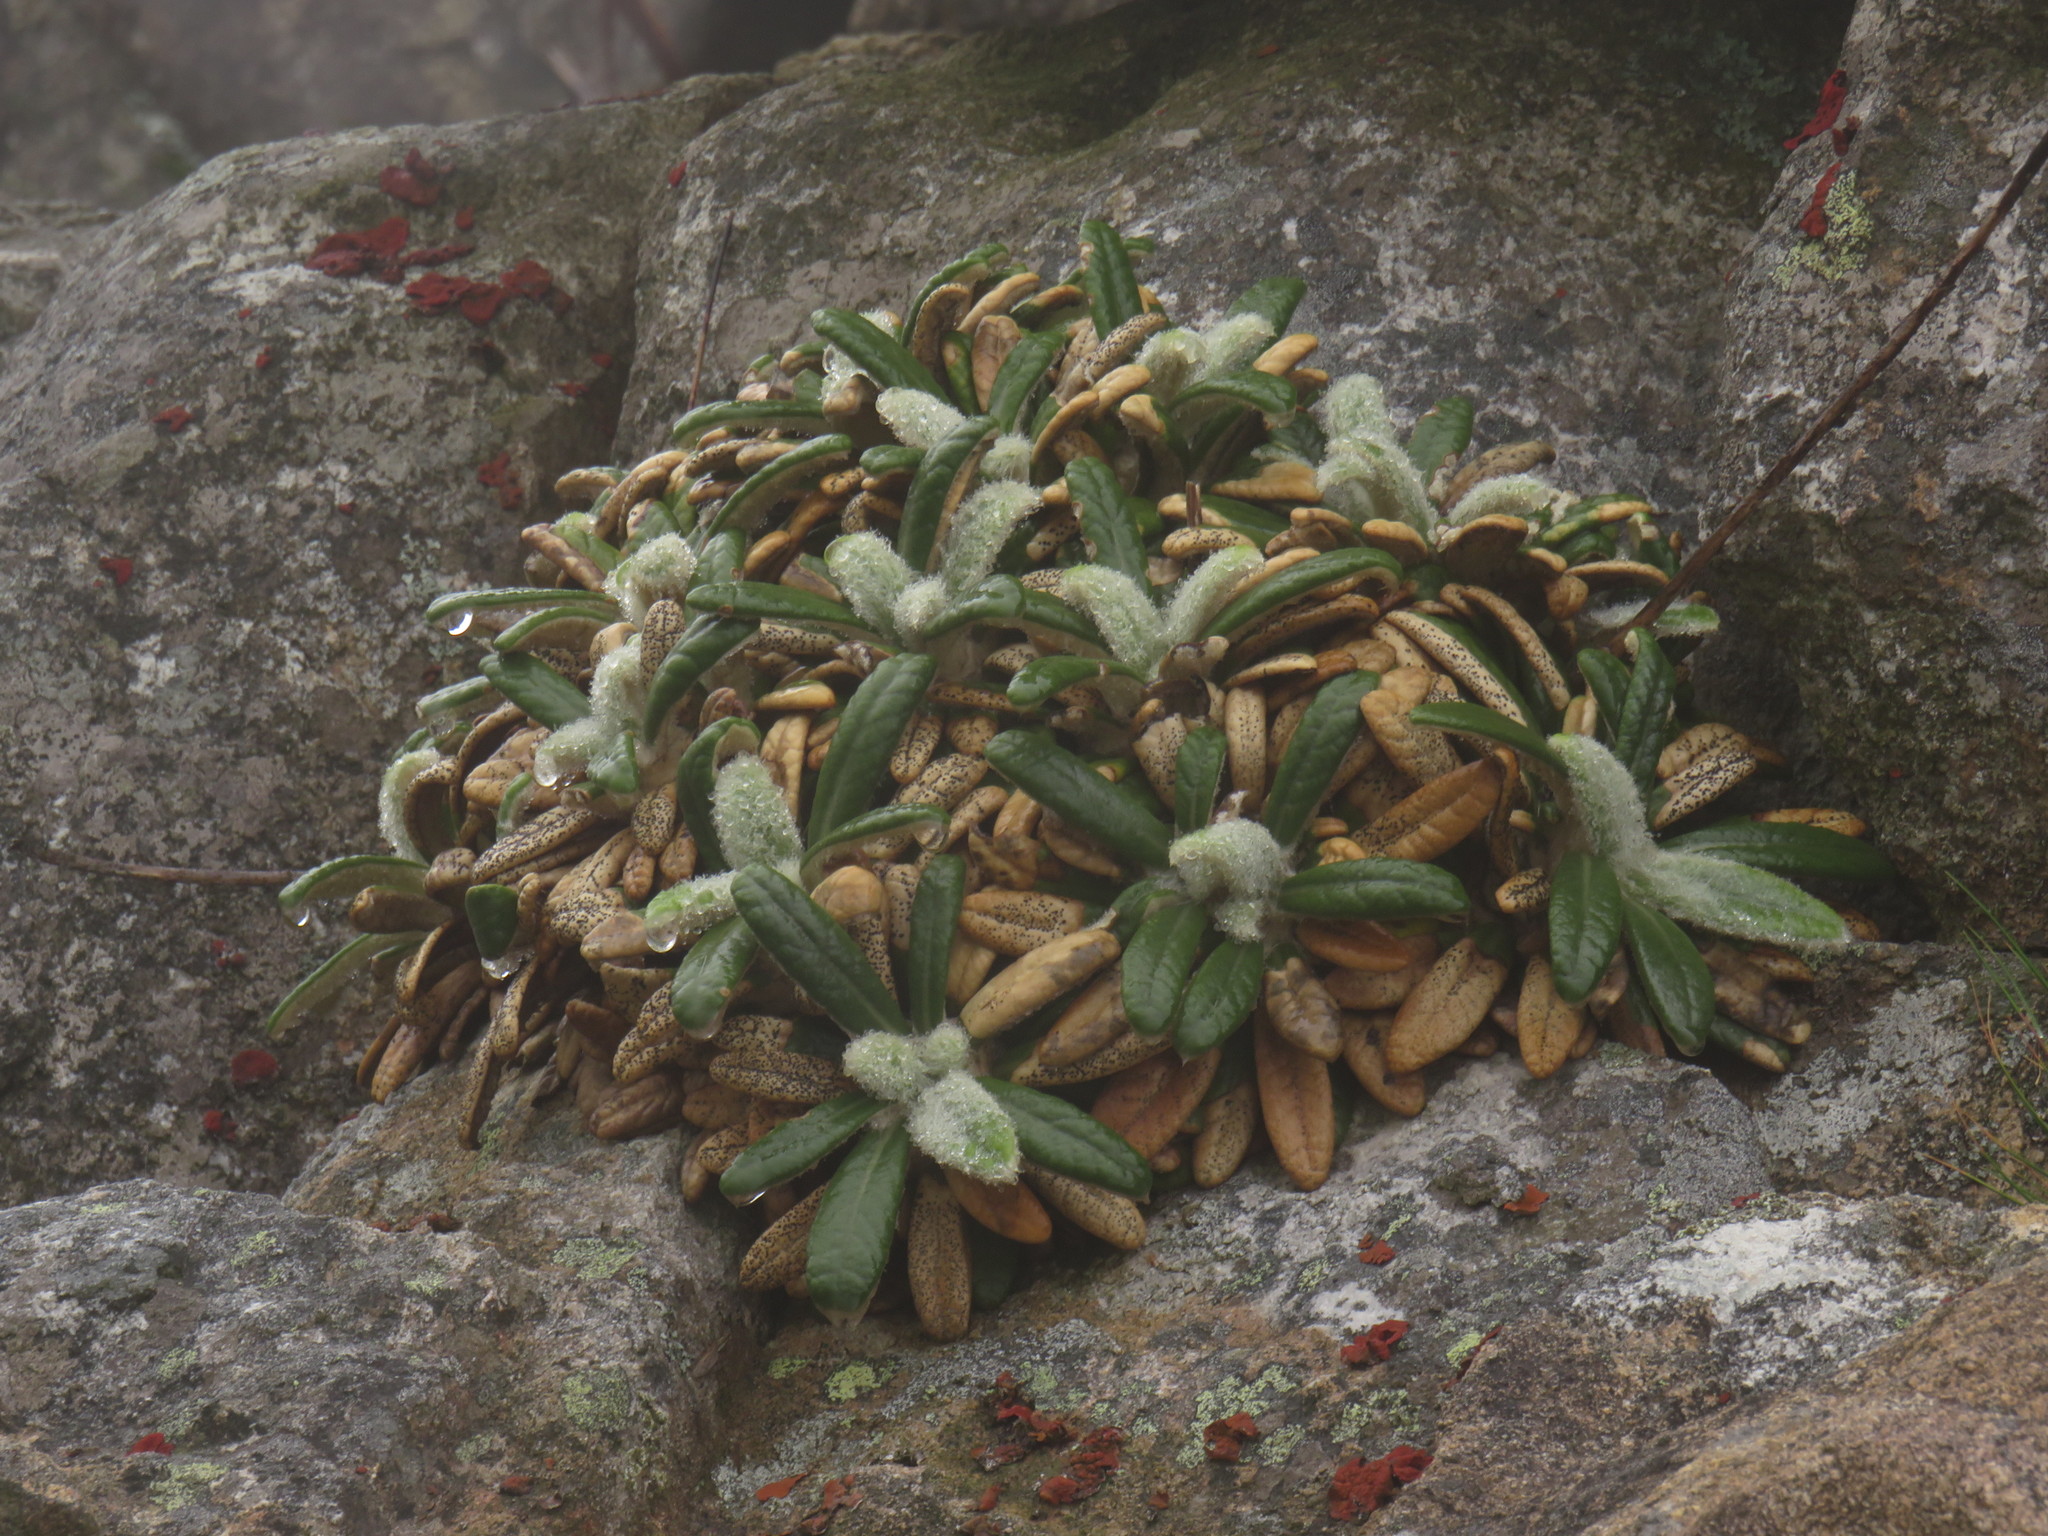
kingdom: Plantae
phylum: Tracheophyta
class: Magnoliopsida
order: Asterales
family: Asteraceae
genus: Oldenburgia
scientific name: Oldenburgia intermedia
